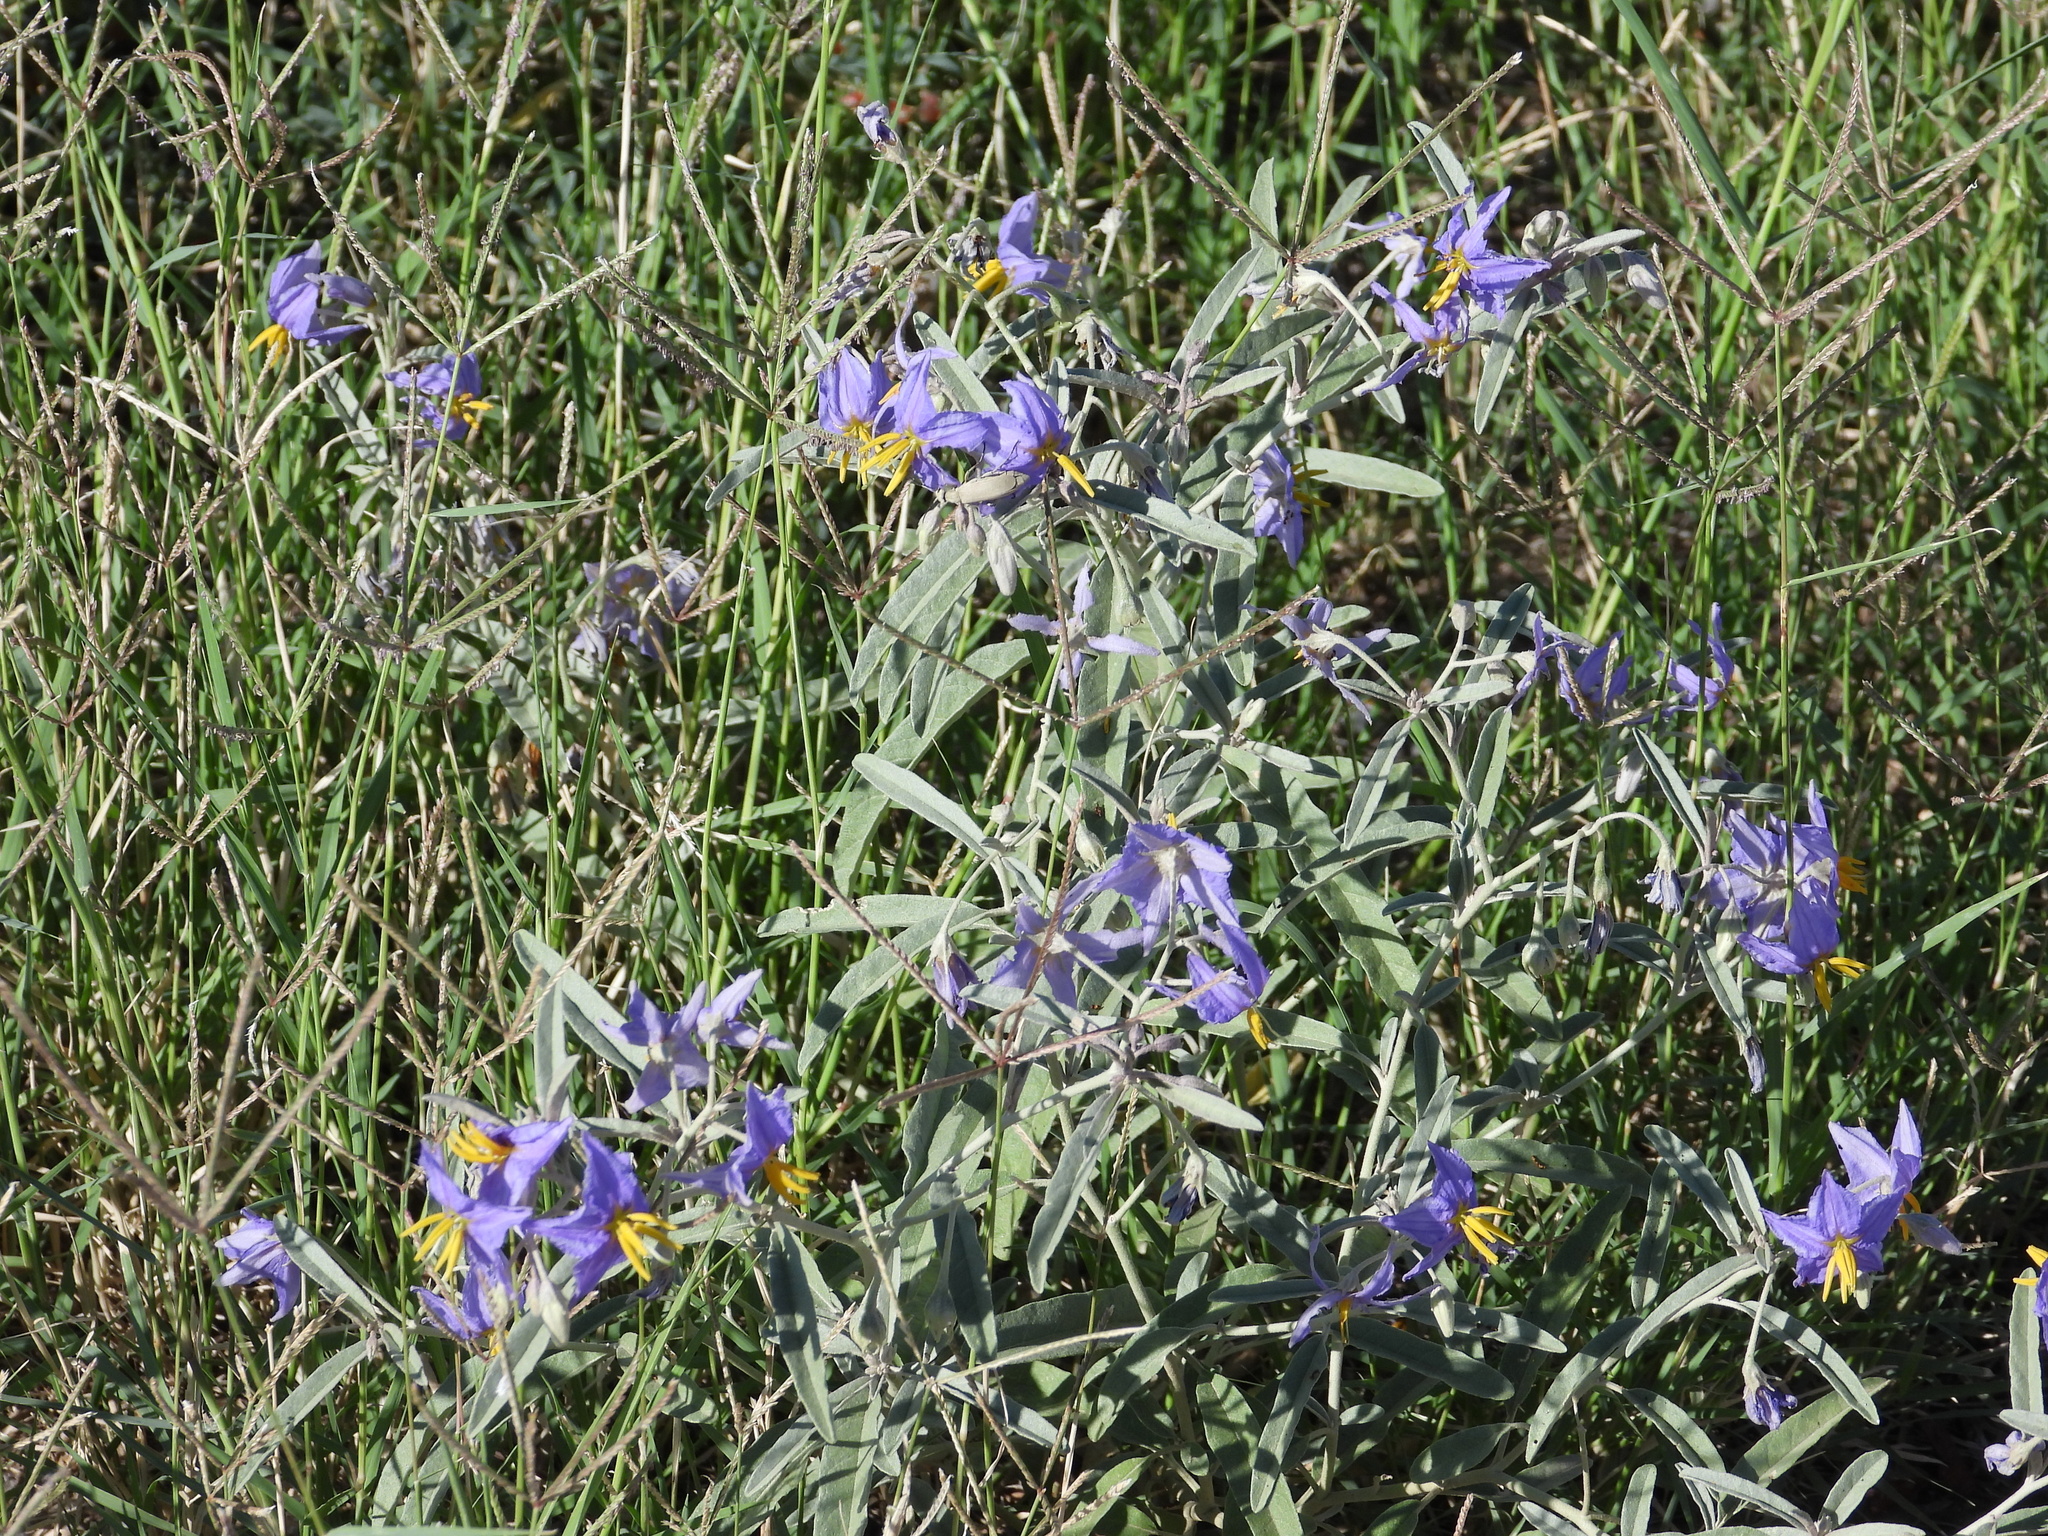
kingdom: Plantae
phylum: Tracheophyta
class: Magnoliopsida
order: Solanales
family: Solanaceae
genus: Solanum
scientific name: Solanum elaeagnifolium
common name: Silverleaf nightshade
